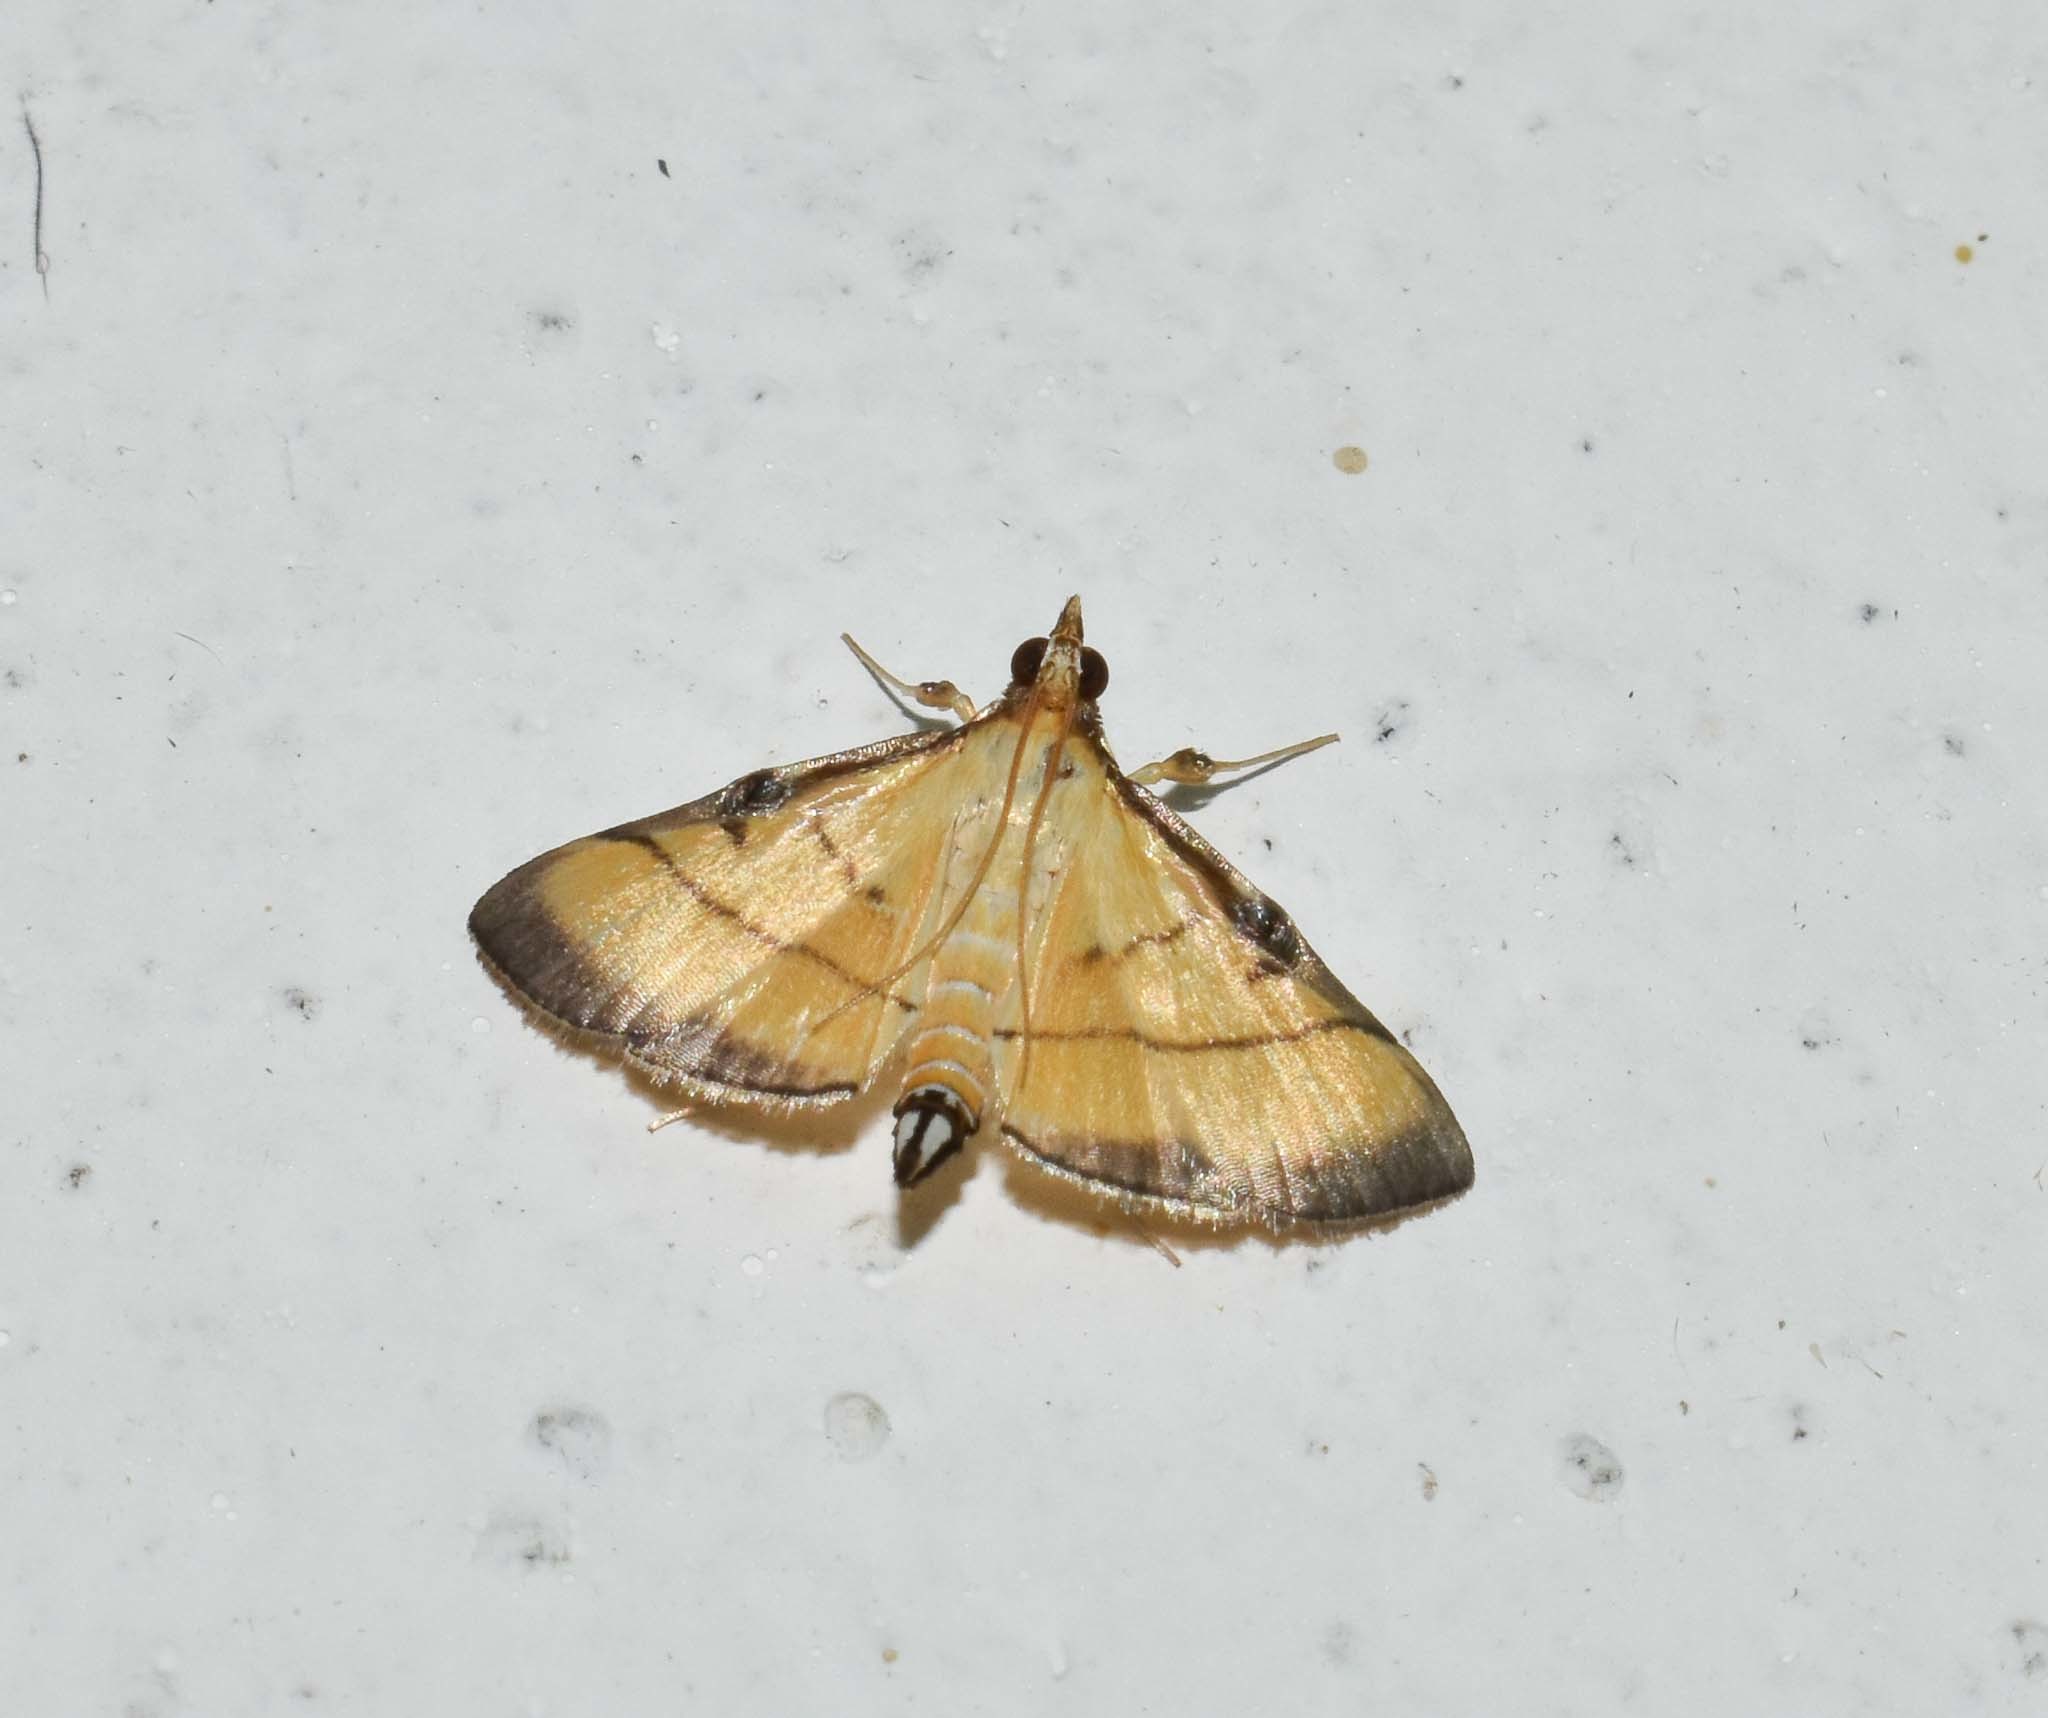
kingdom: Animalia
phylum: Arthropoda
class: Insecta
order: Lepidoptera
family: Crambidae
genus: Cnaphalocrocis
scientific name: Cnaphalocrocis medinalis
